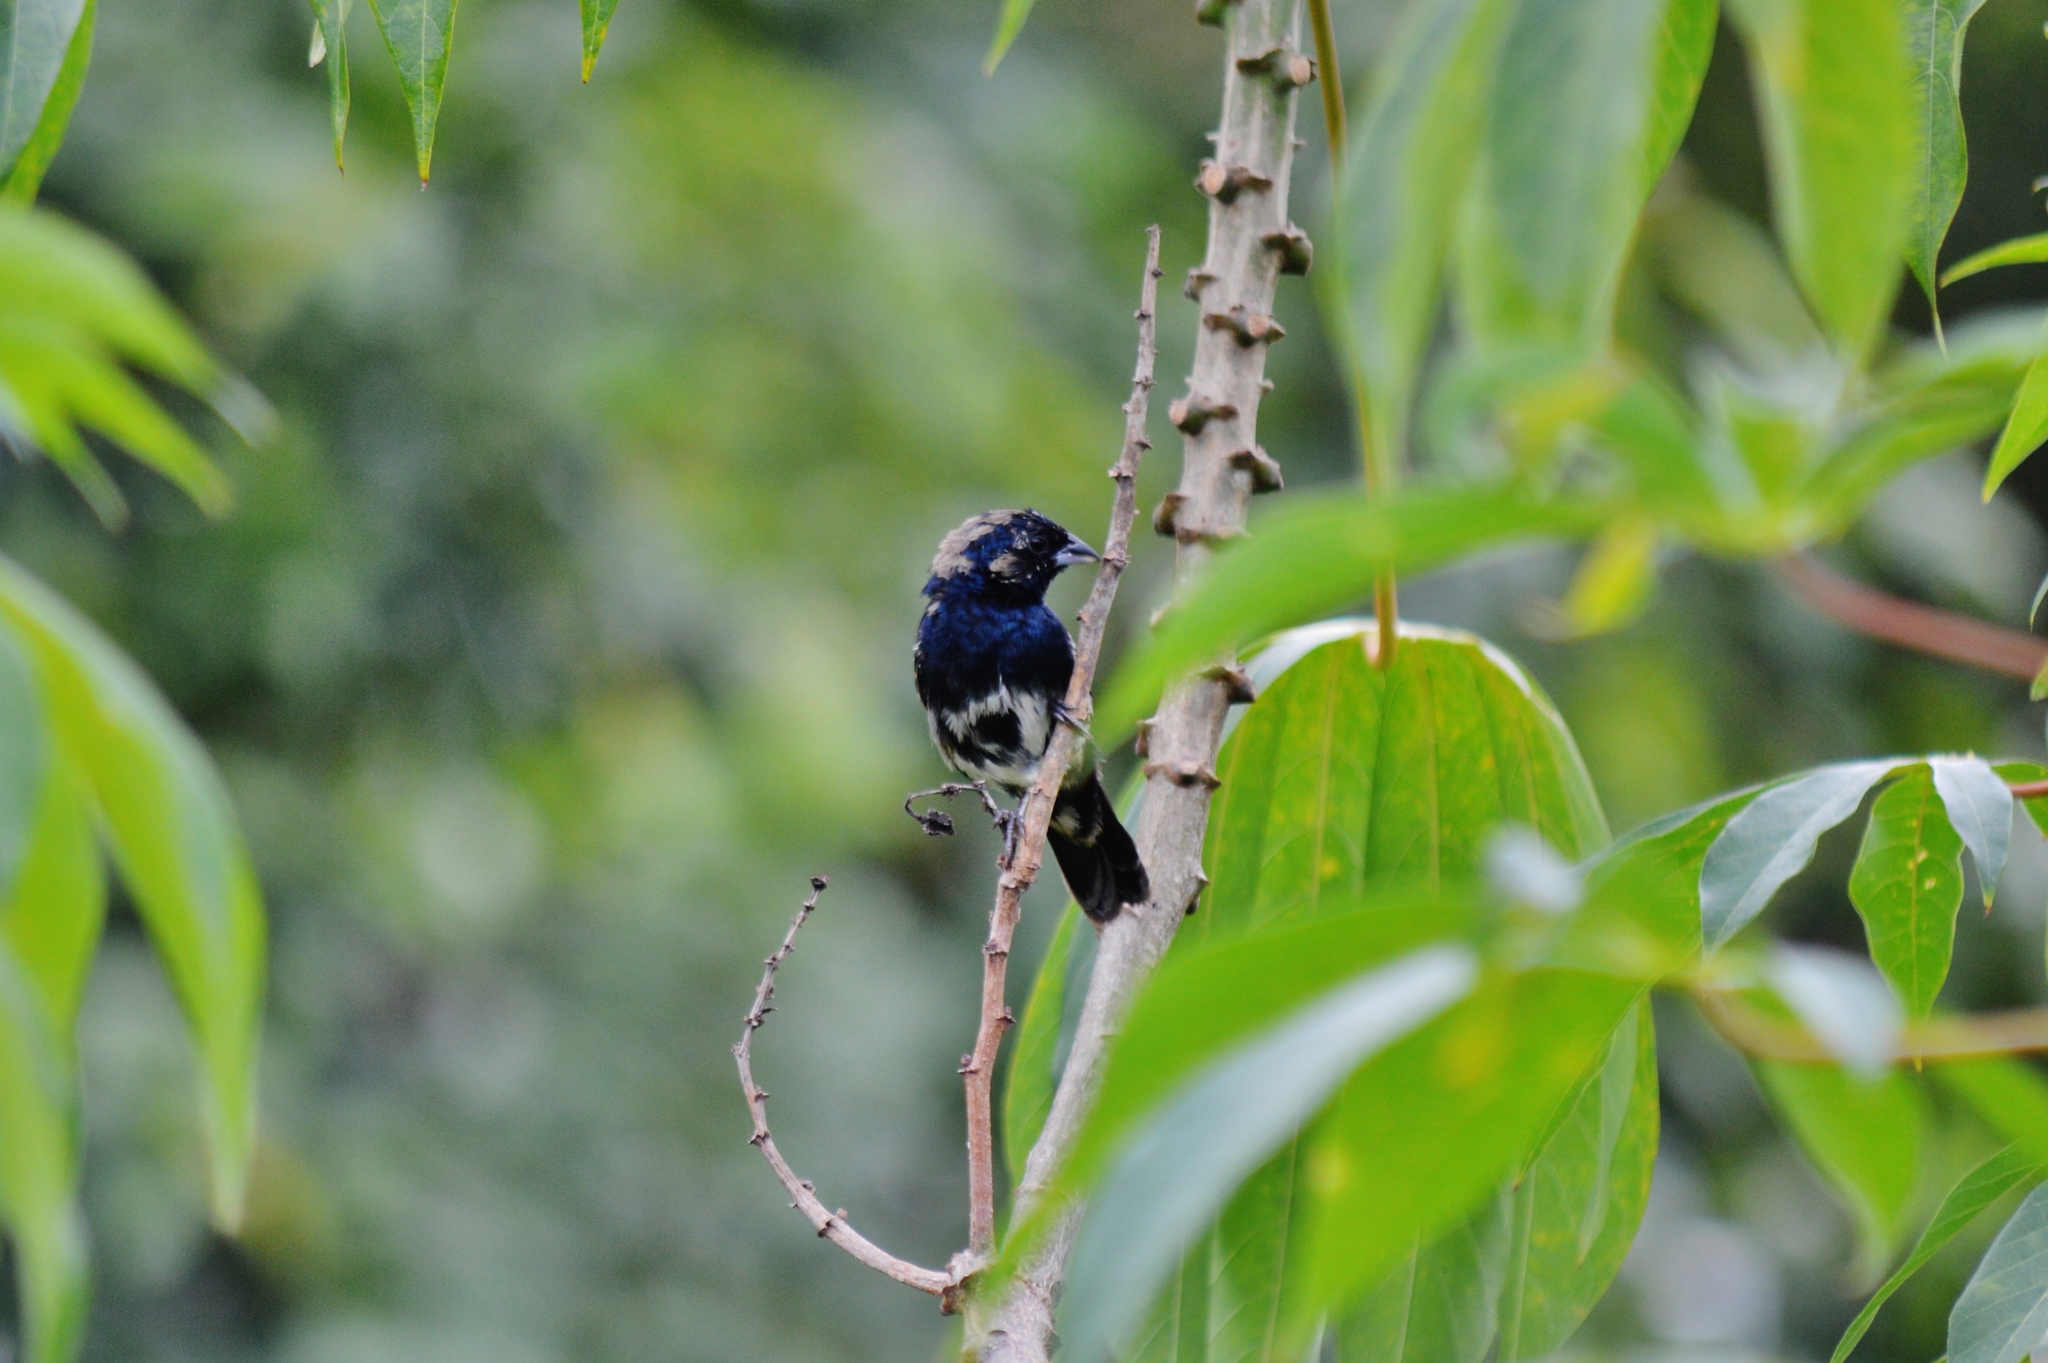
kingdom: Animalia
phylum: Chordata
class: Aves
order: Passeriformes
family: Thraupidae
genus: Volatinia
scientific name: Volatinia jacarina
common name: Blue-black grassquit
